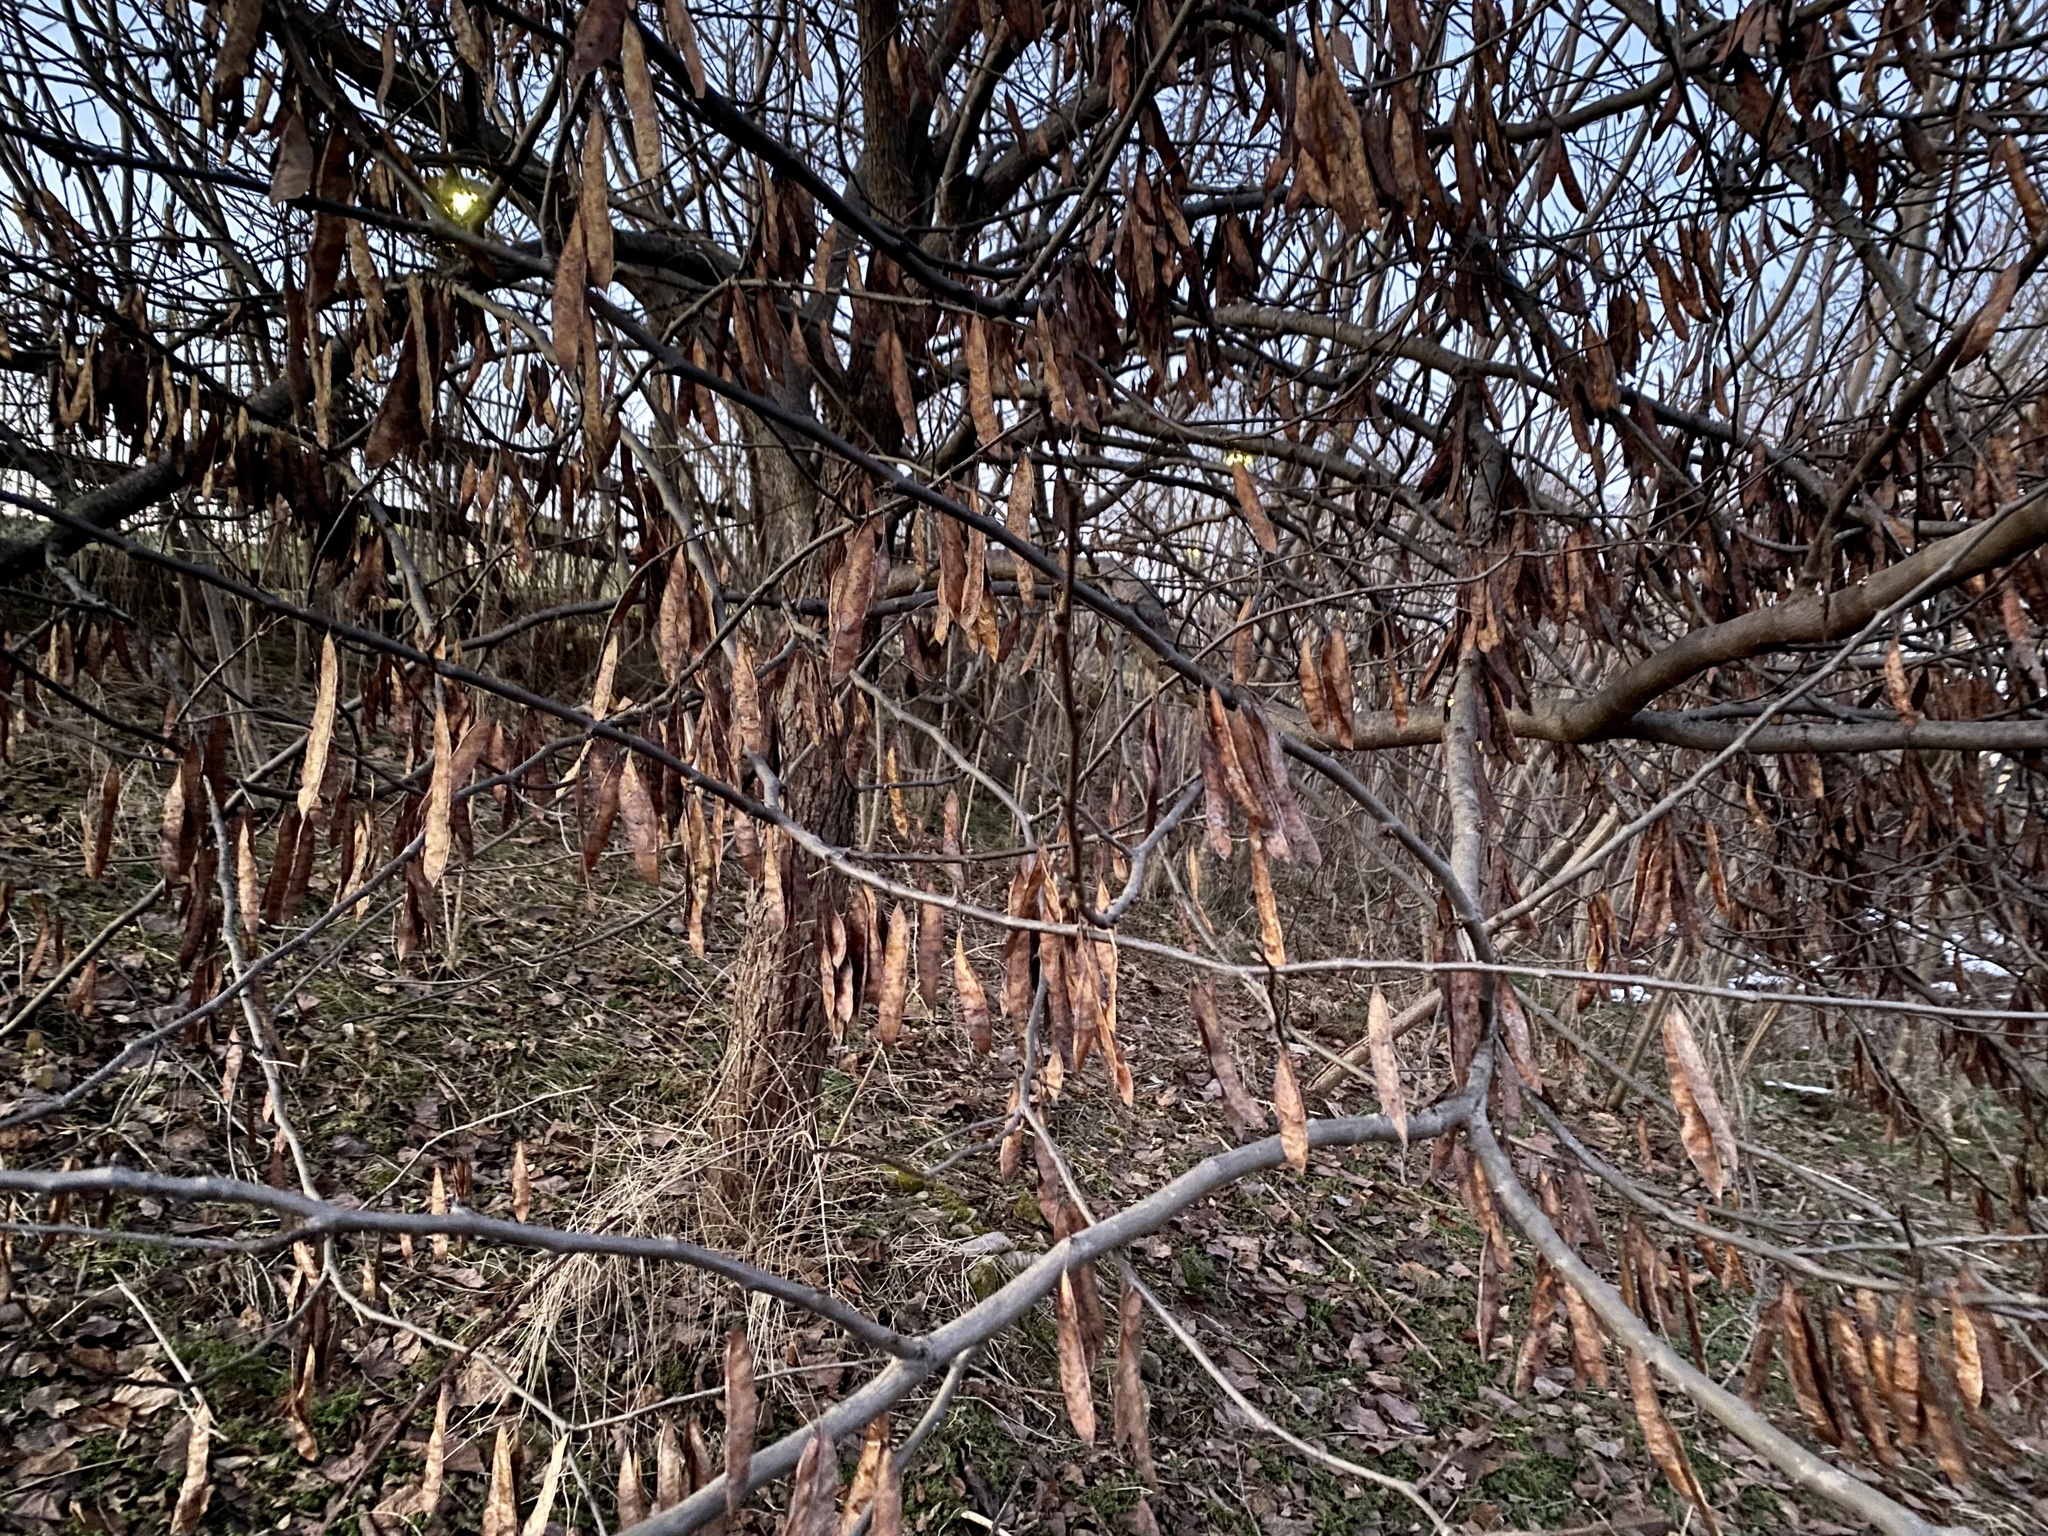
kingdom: Plantae
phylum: Tracheophyta
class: Magnoliopsida
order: Fabales
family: Fabaceae
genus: Cercis
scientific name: Cercis canadensis
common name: Eastern redbud
